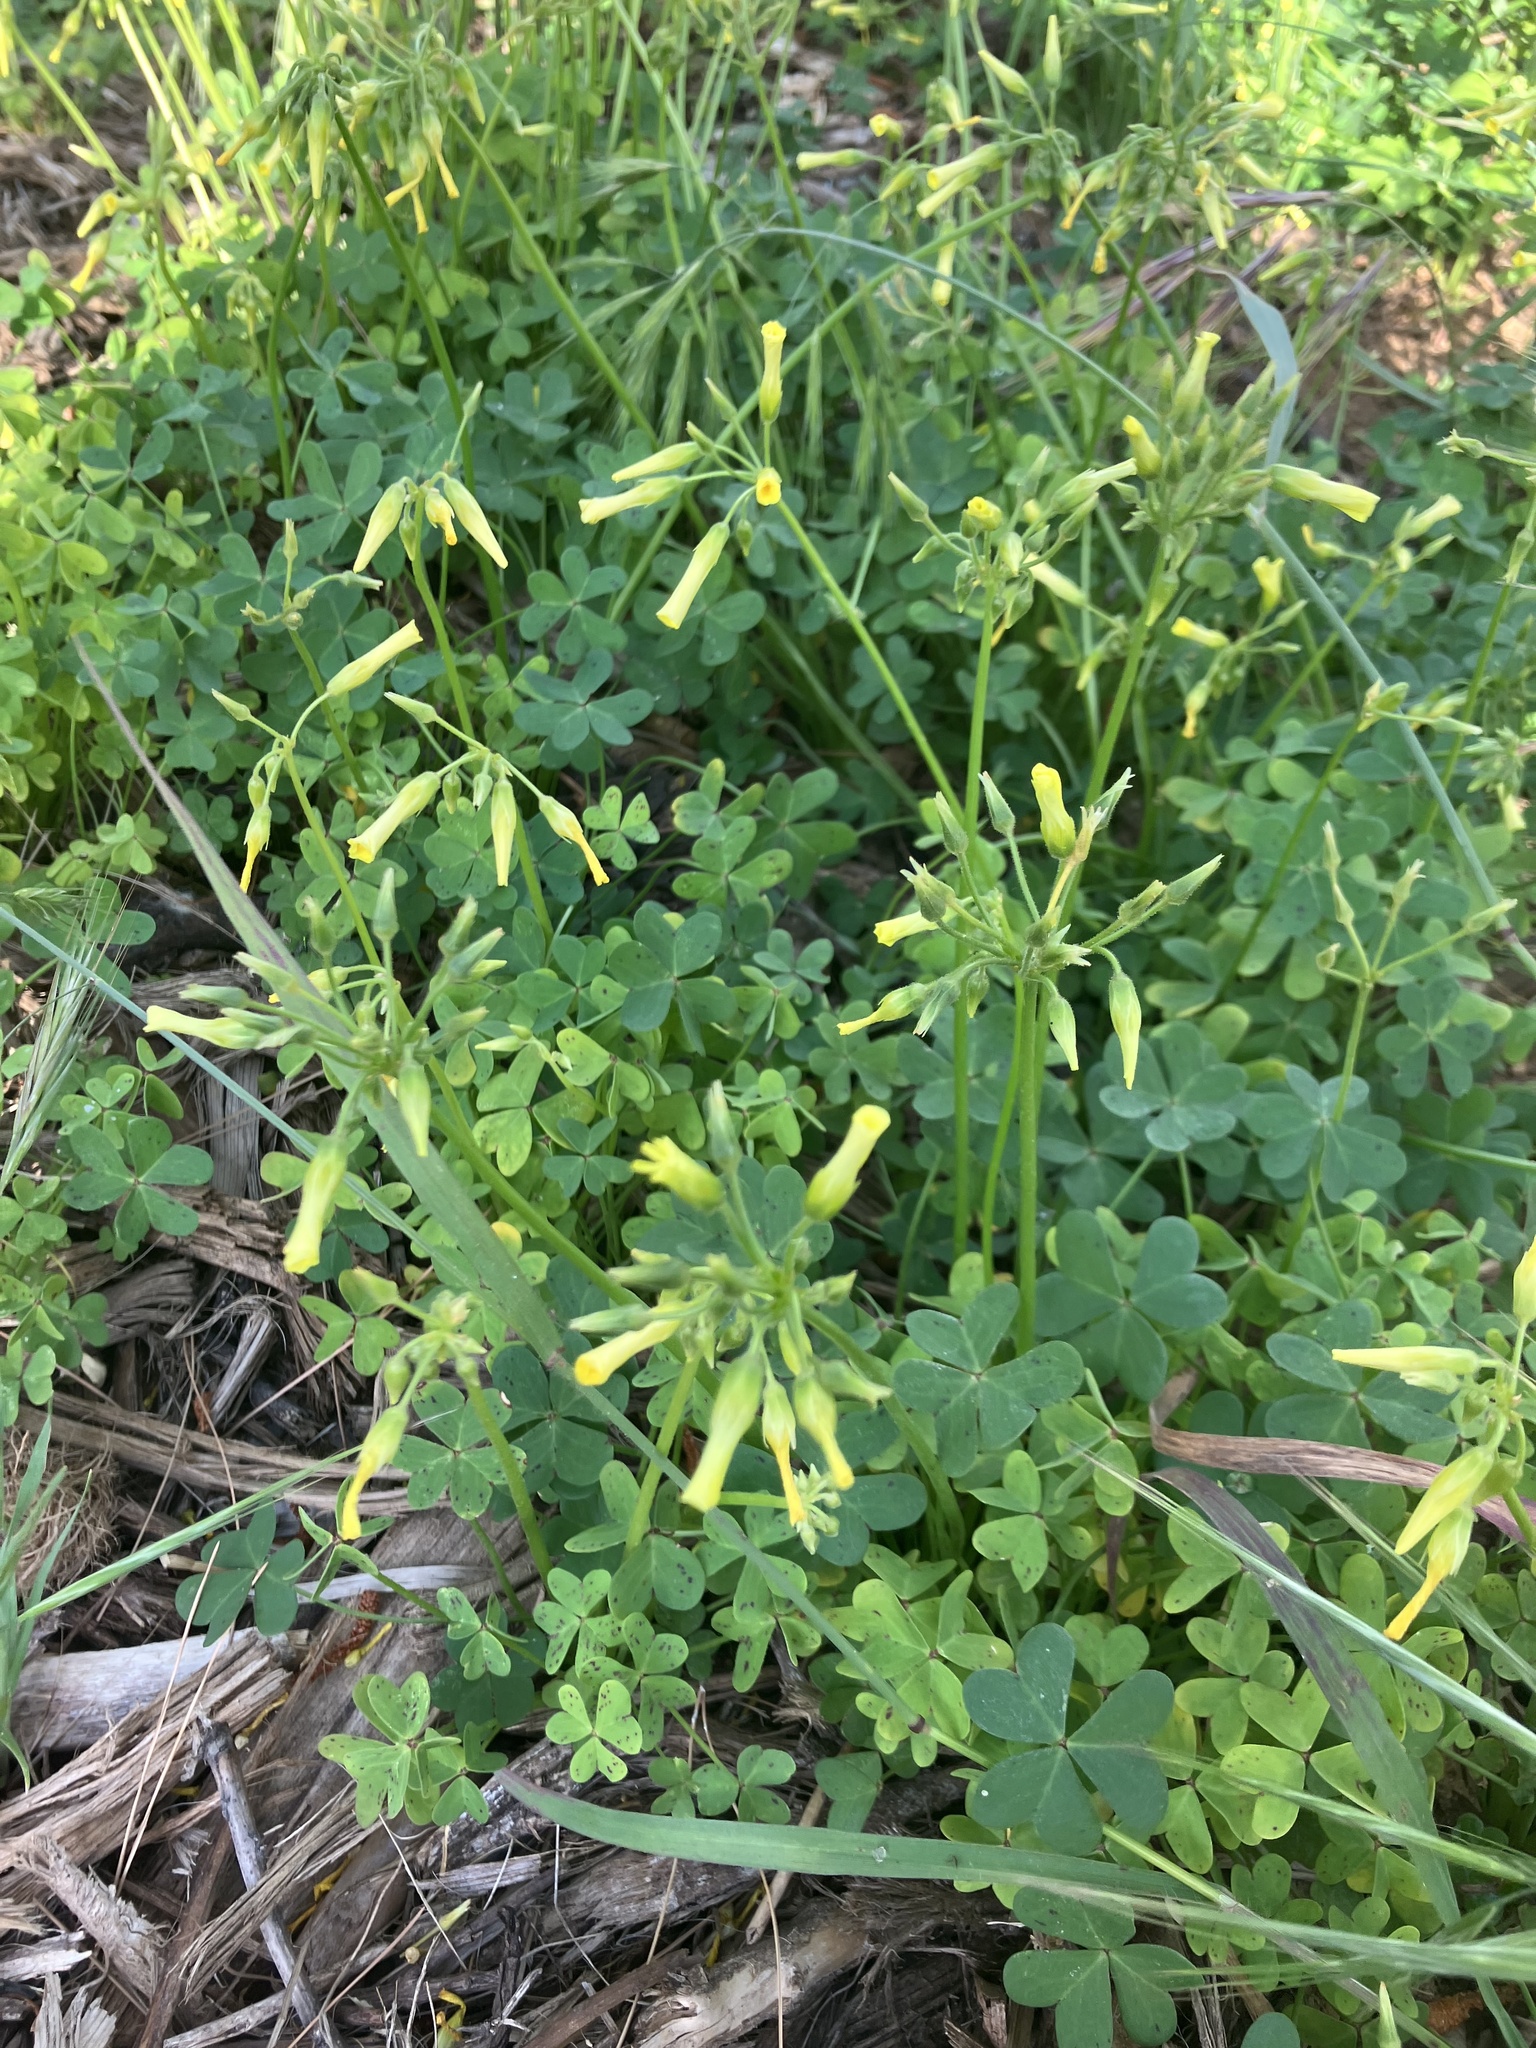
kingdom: Plantae
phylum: Tracheophyta
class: Magnoliopsida
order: Oxalidales
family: Oxalidaceae
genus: Oxalis
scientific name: Oxalis pes-caprae
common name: Bermuda-buttercup
